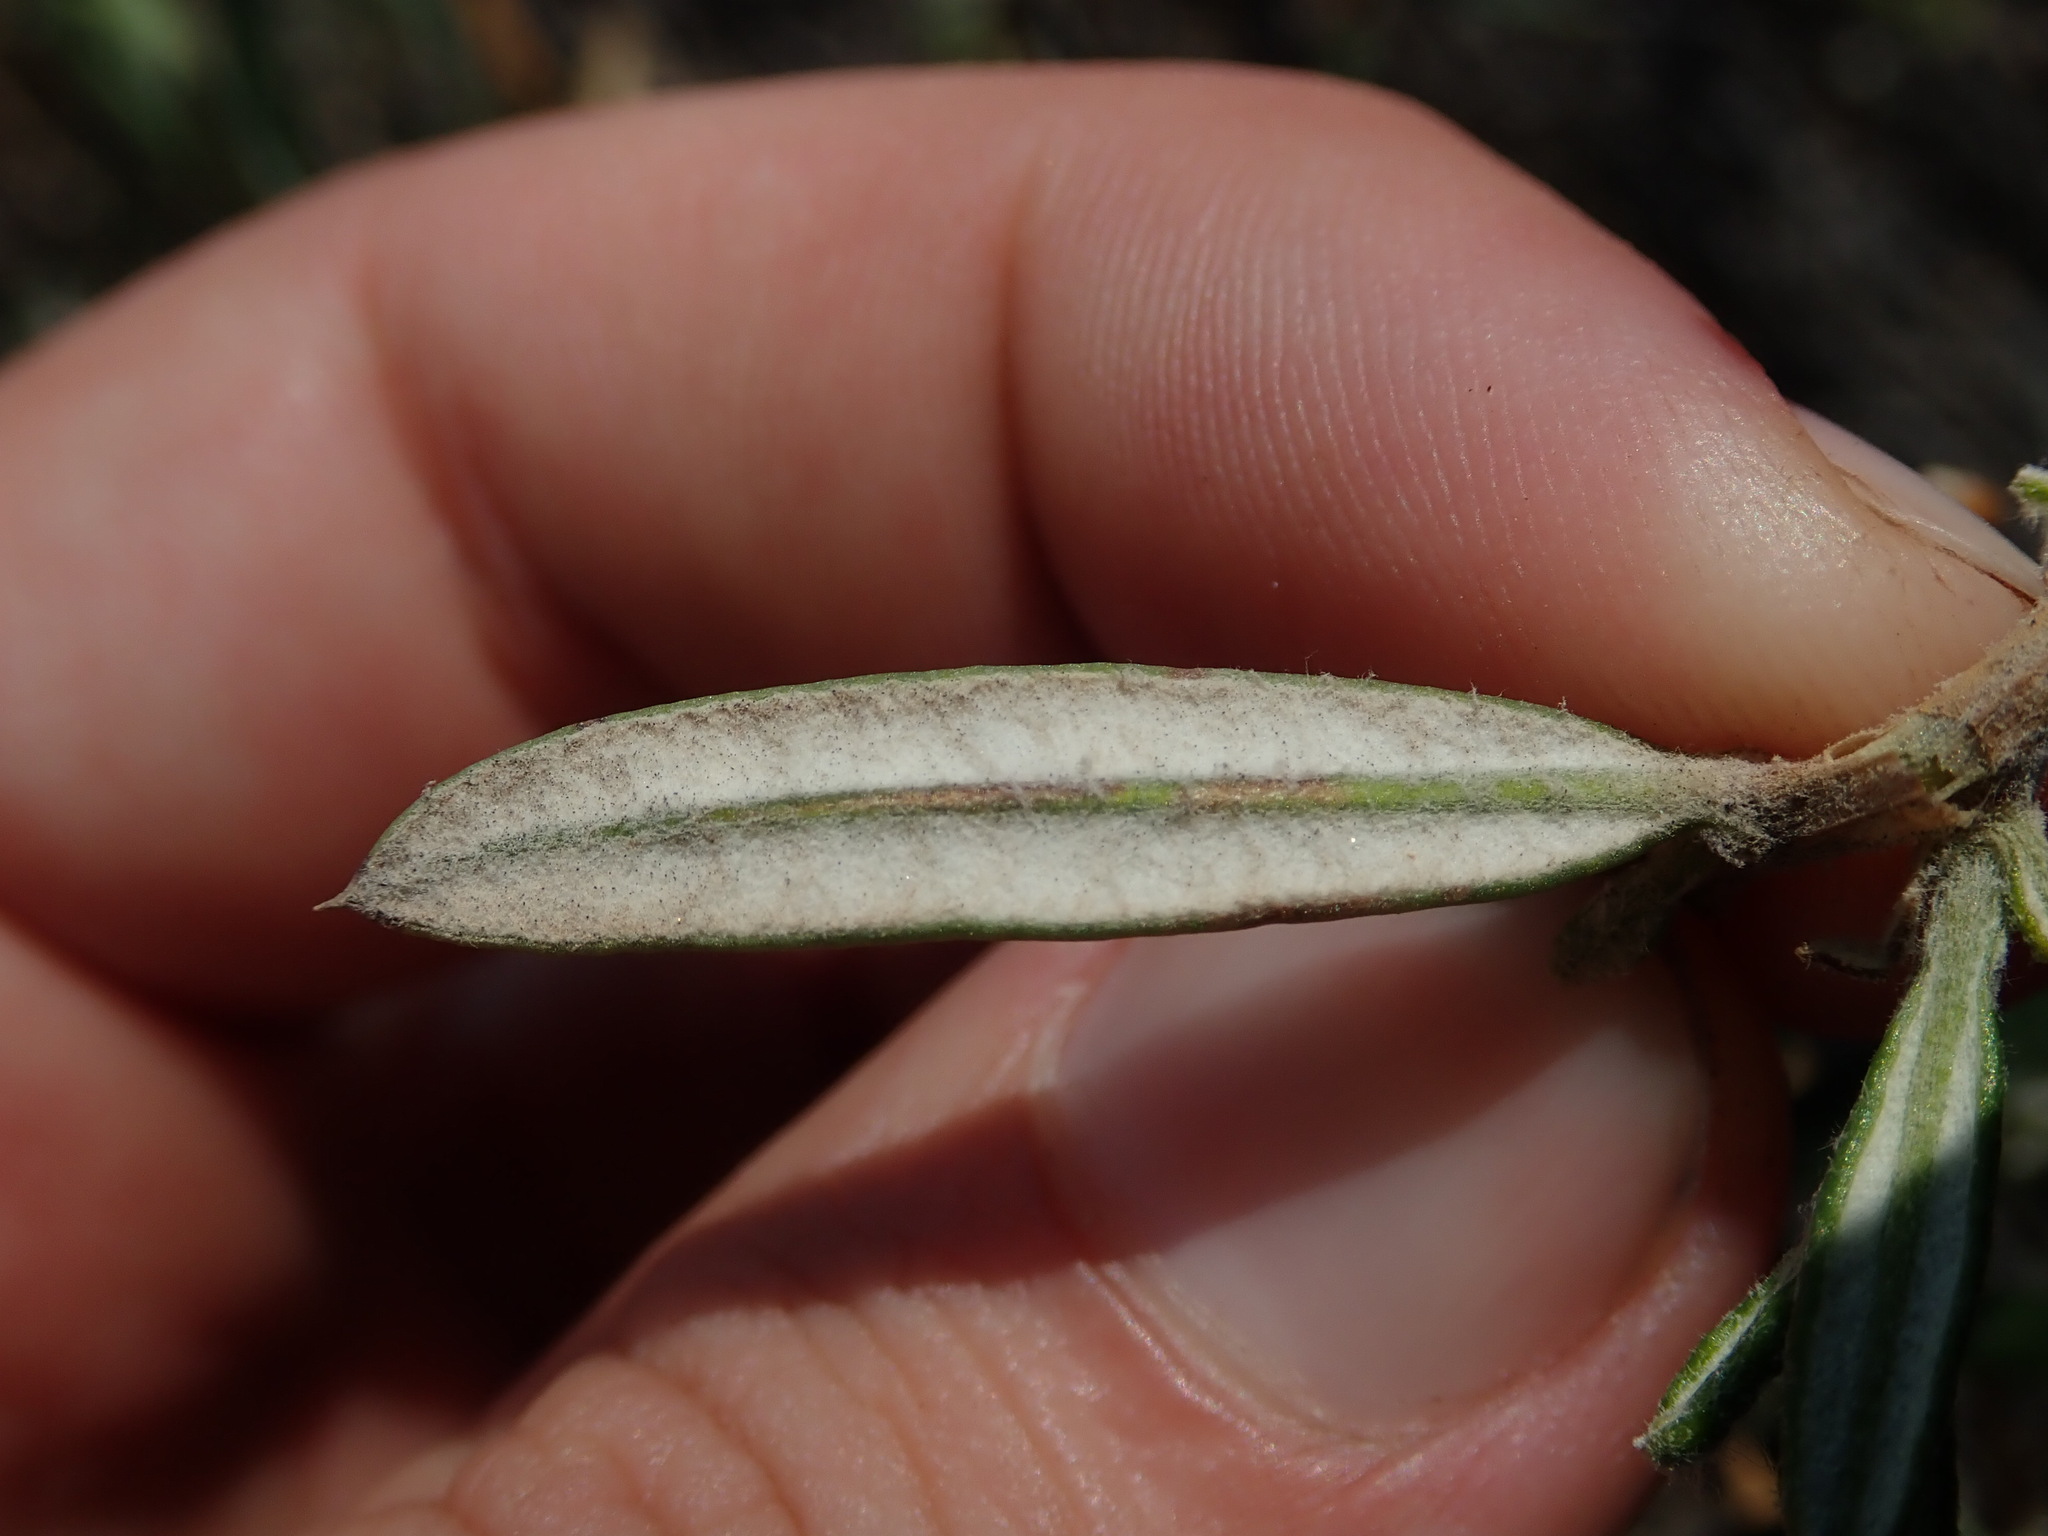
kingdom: Plantae
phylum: Tracheophyta
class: Magnoliopsida
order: Asterales
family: Asteraceae
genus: Mutisia
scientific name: Mutisia ledifolia
